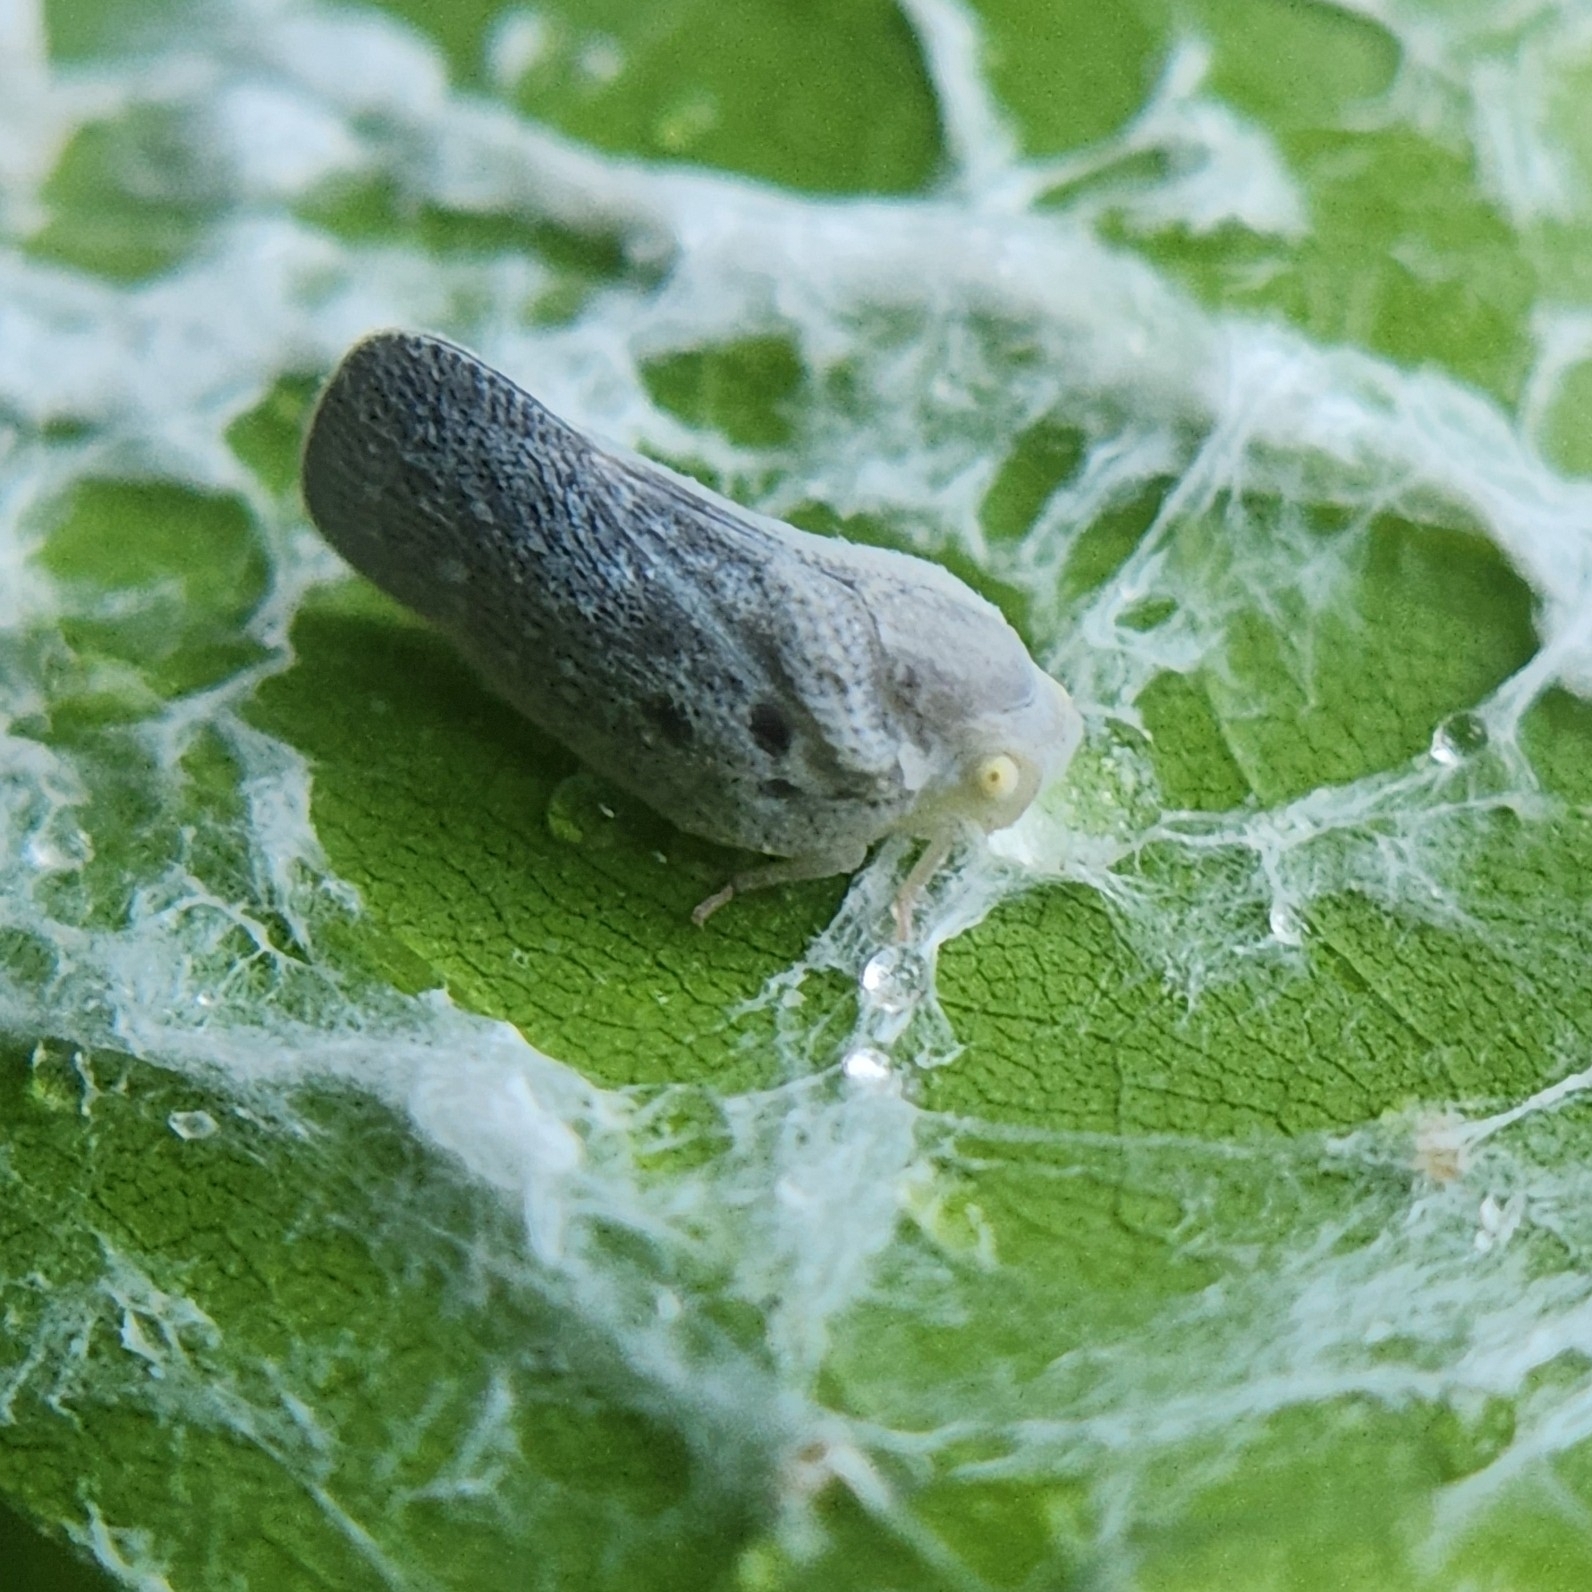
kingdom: Animalia
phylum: Arthropoda
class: Insecta
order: Hemiptera
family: Flatidae
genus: Metcalfa
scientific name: Metcalfa pruinosa
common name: Citrus flatid planthopper
